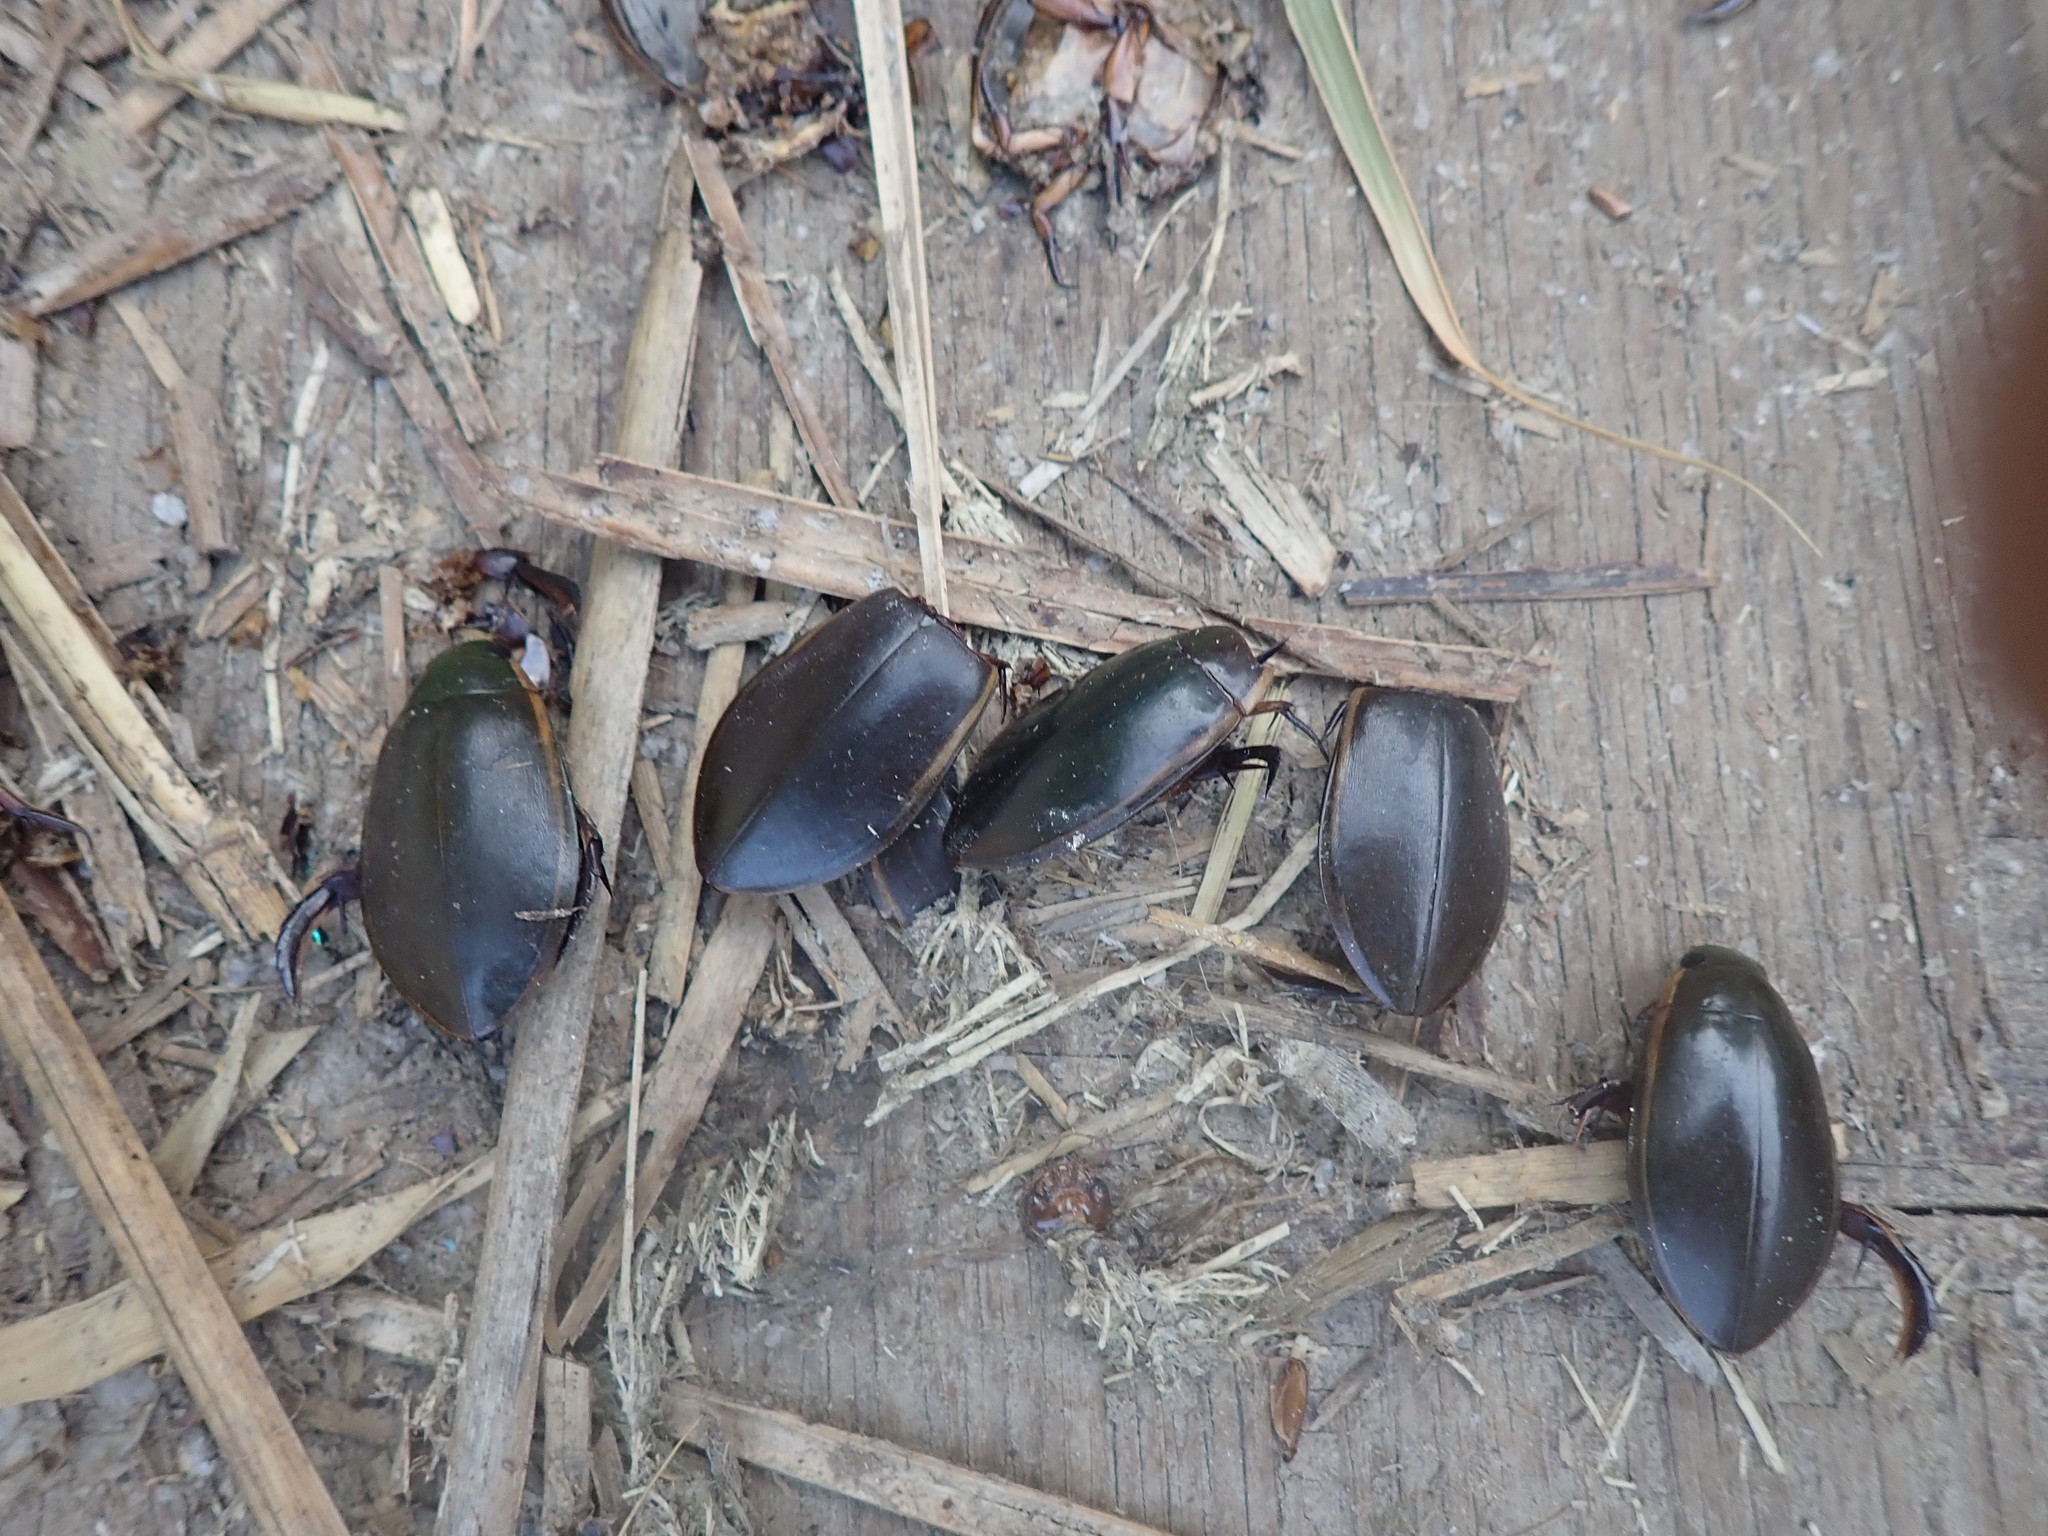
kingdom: Animalia
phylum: Arthropoda
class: Insecta
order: Coleoptera
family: Dytiscidae
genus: Cybister
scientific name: Cybister lateralimarginalis
